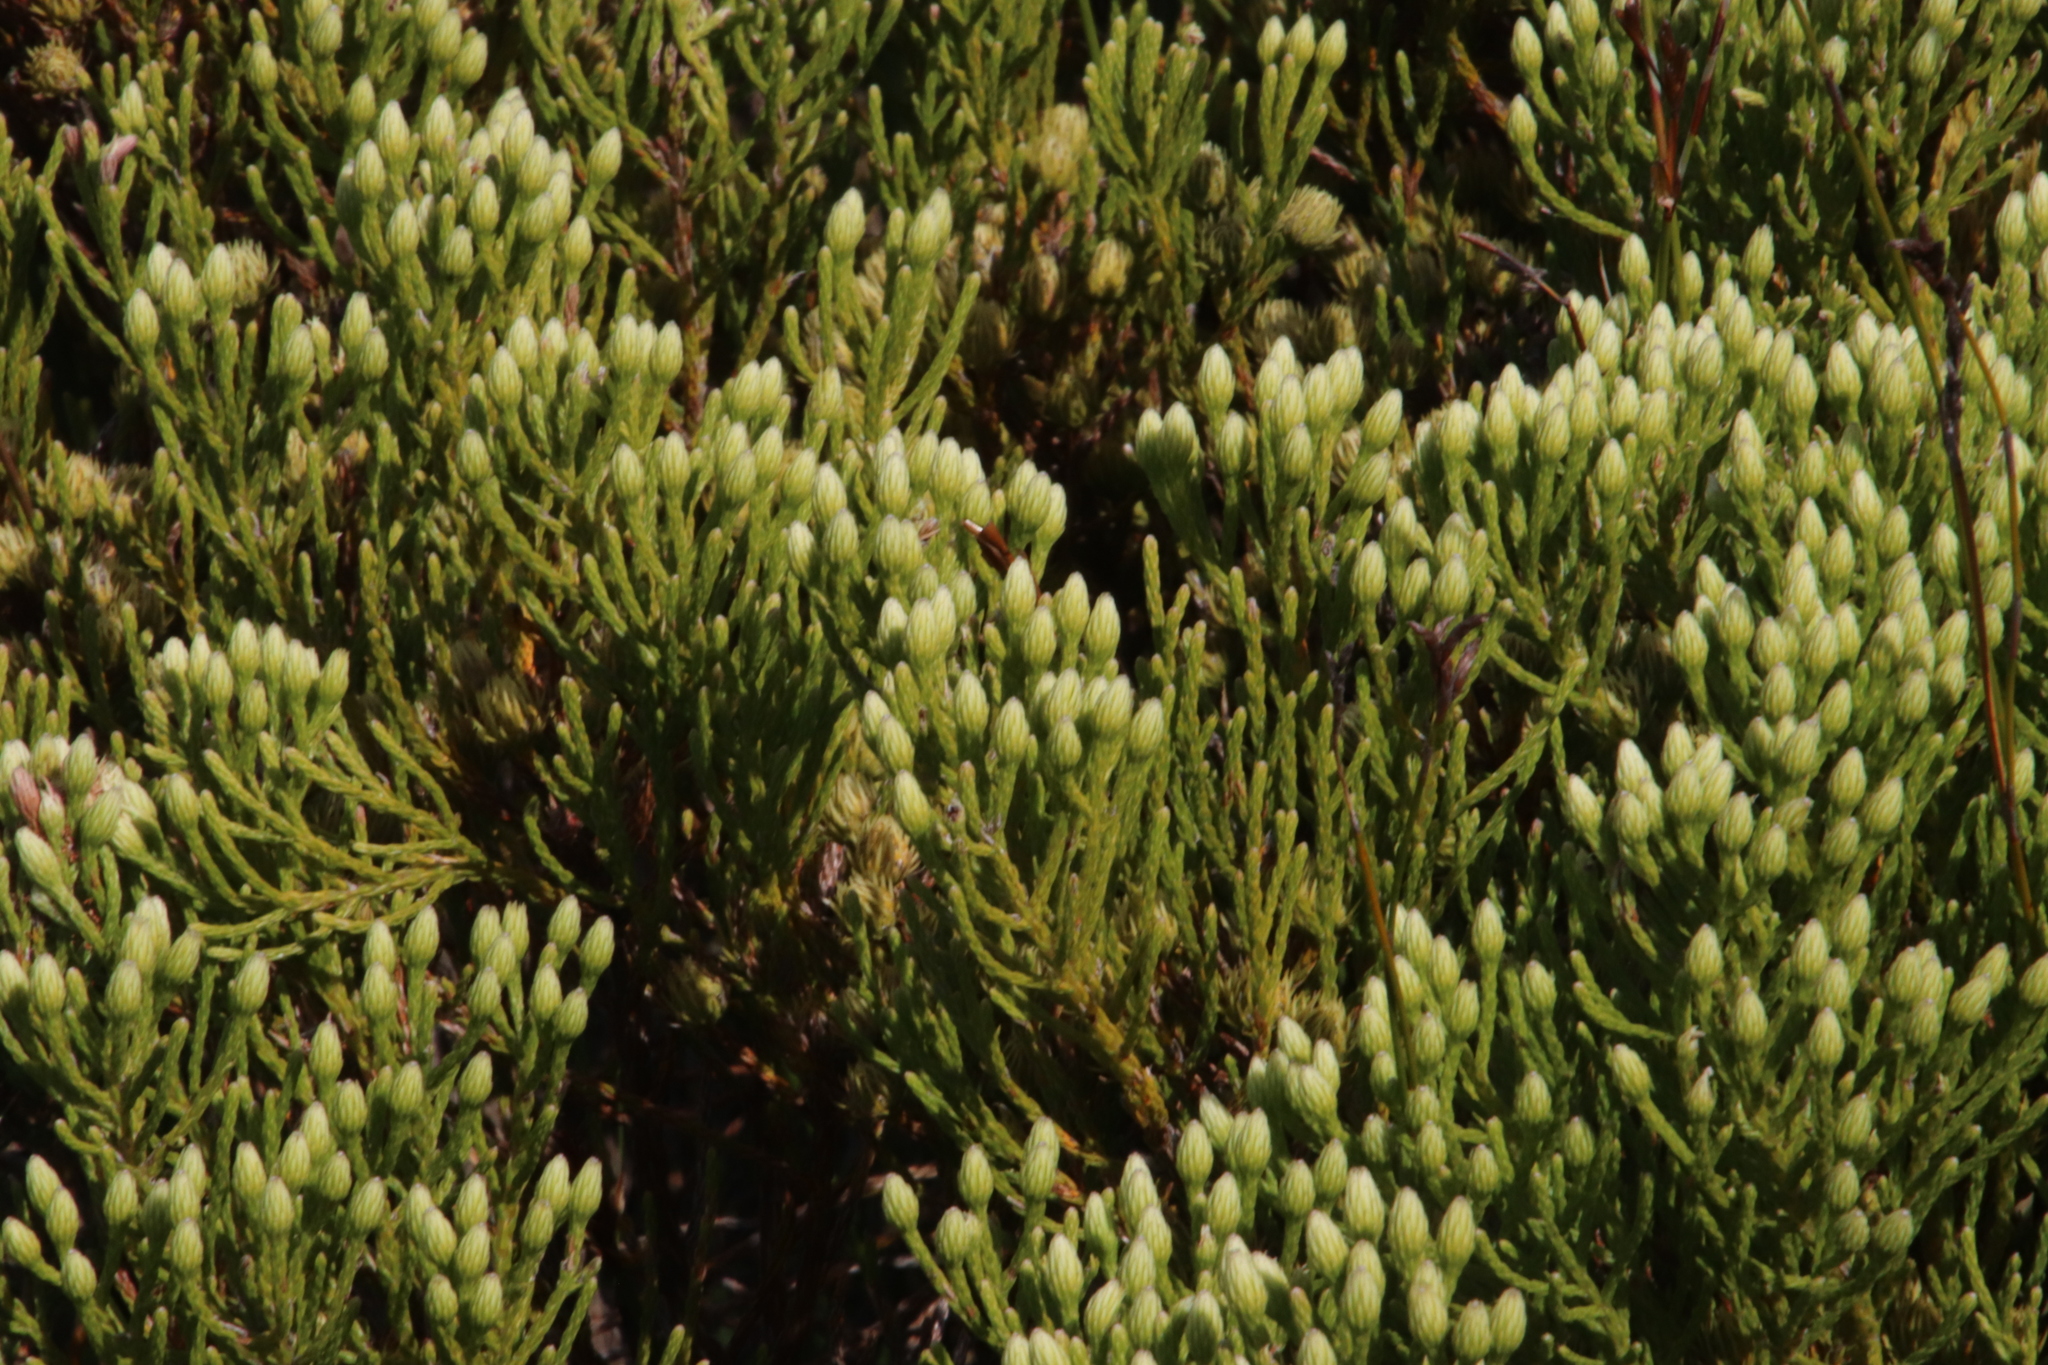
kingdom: Plantae
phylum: Tracheophyta
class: Magnoliopsida
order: Bruniales
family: Bruniaceae
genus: Brunia
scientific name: Brunia paleacea
